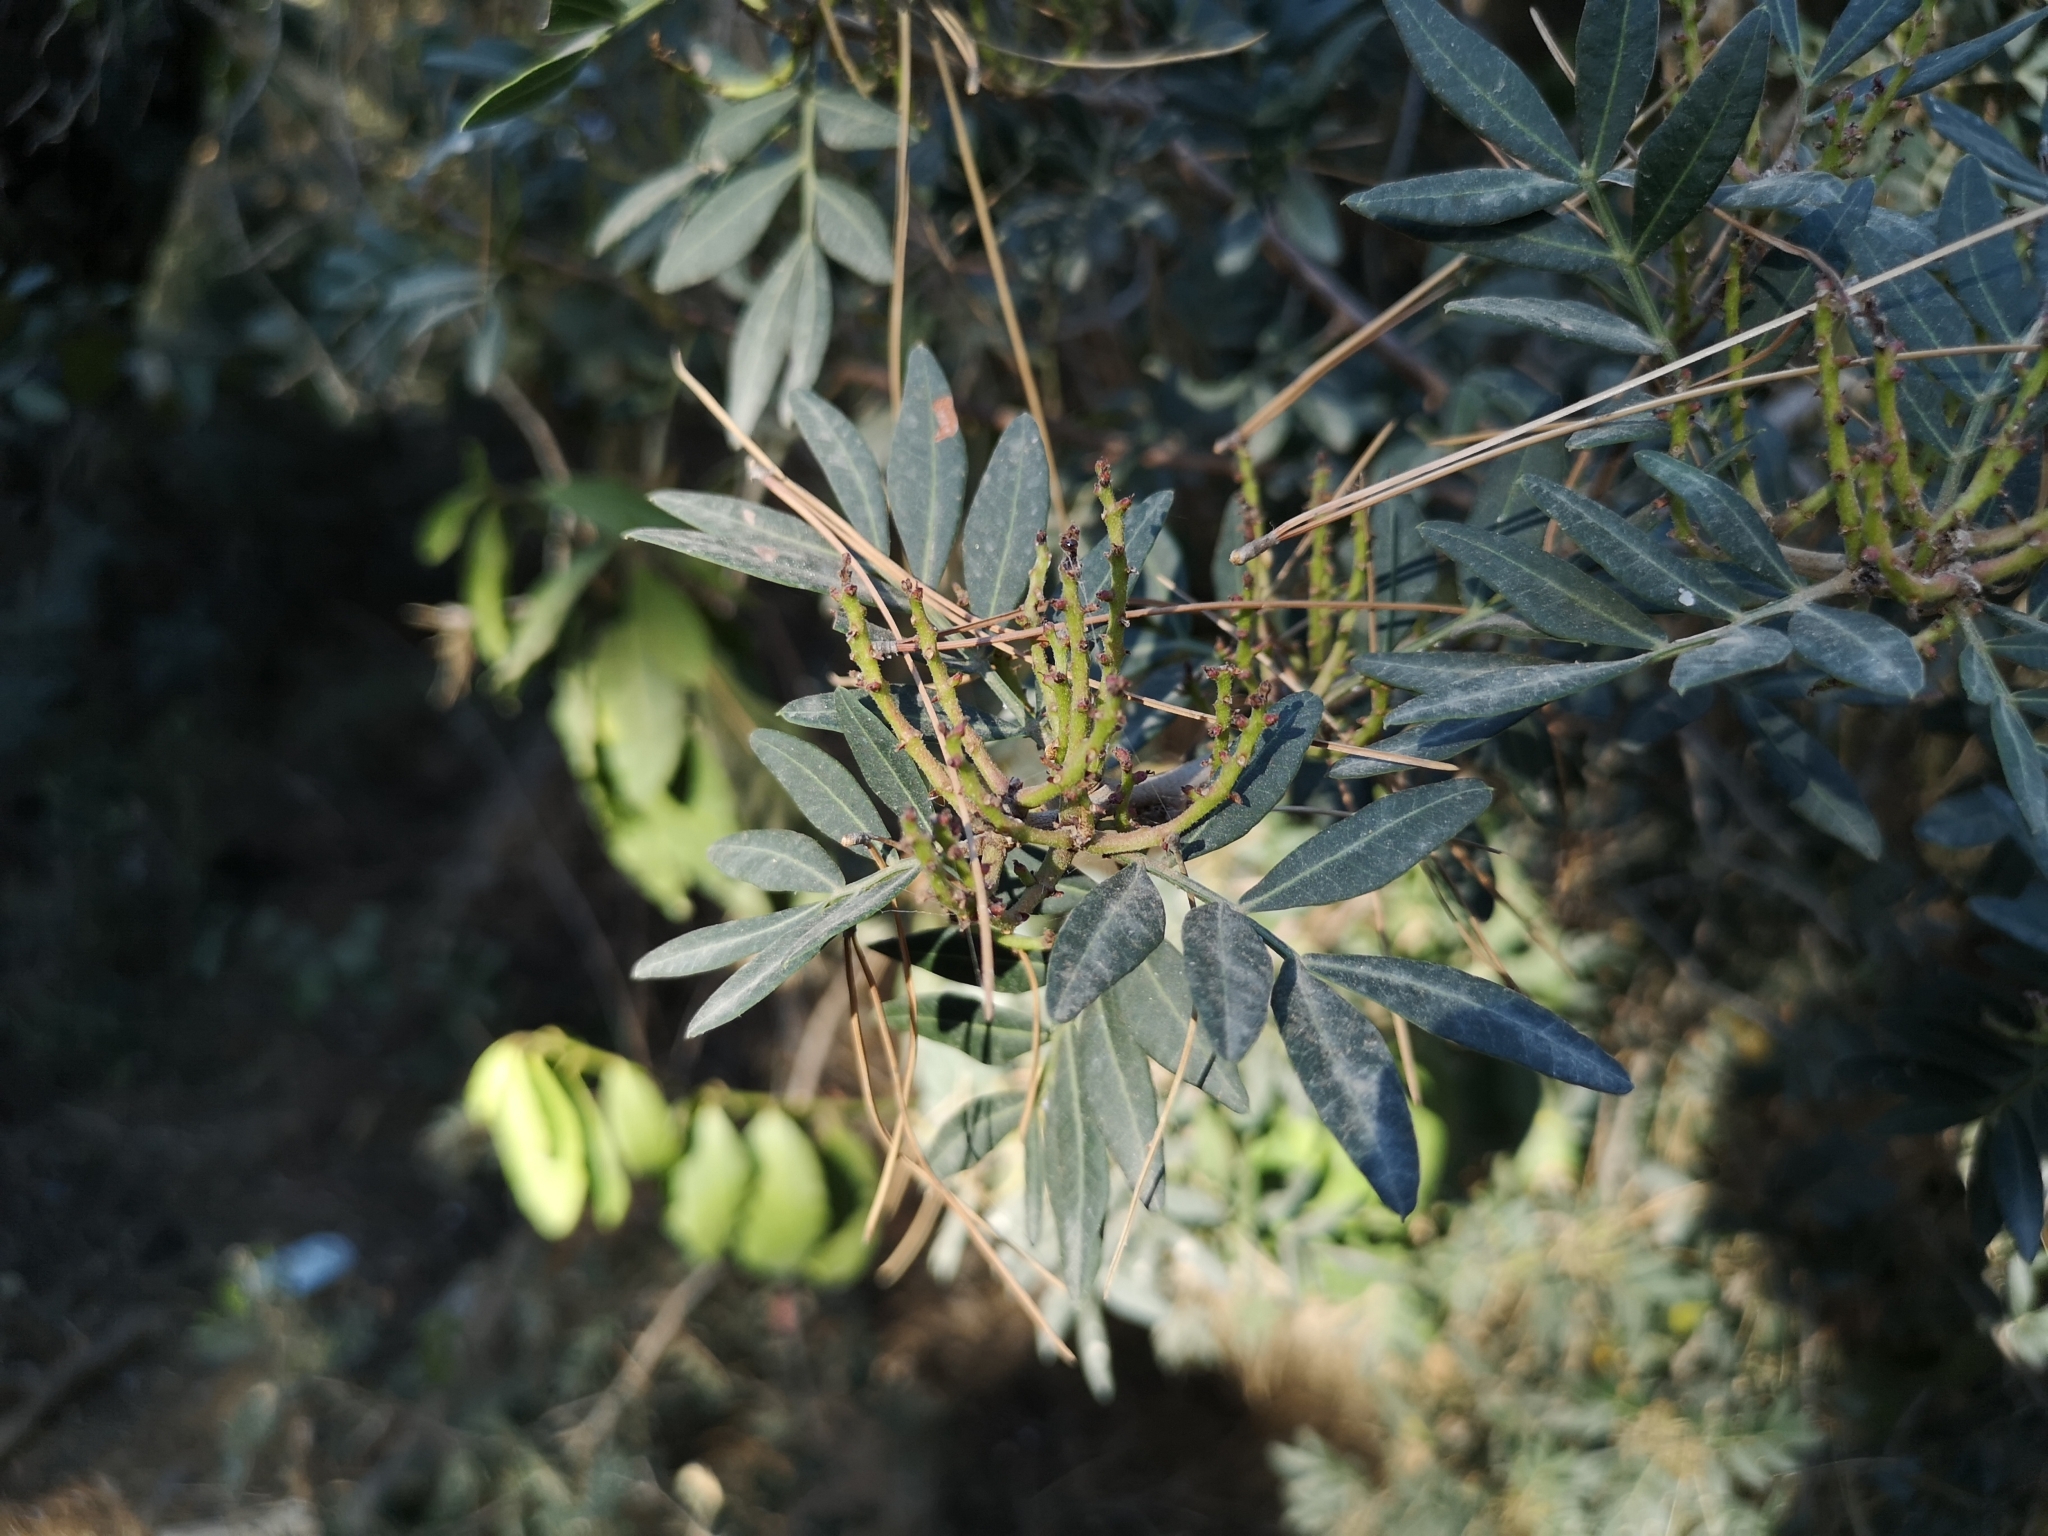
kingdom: Plantae
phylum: Tracheophyta
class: Magnoliopsida
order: Sapindales
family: Anacardiaceae
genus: Pistacia
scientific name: Pistacia lentiscus
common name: Lentisk
